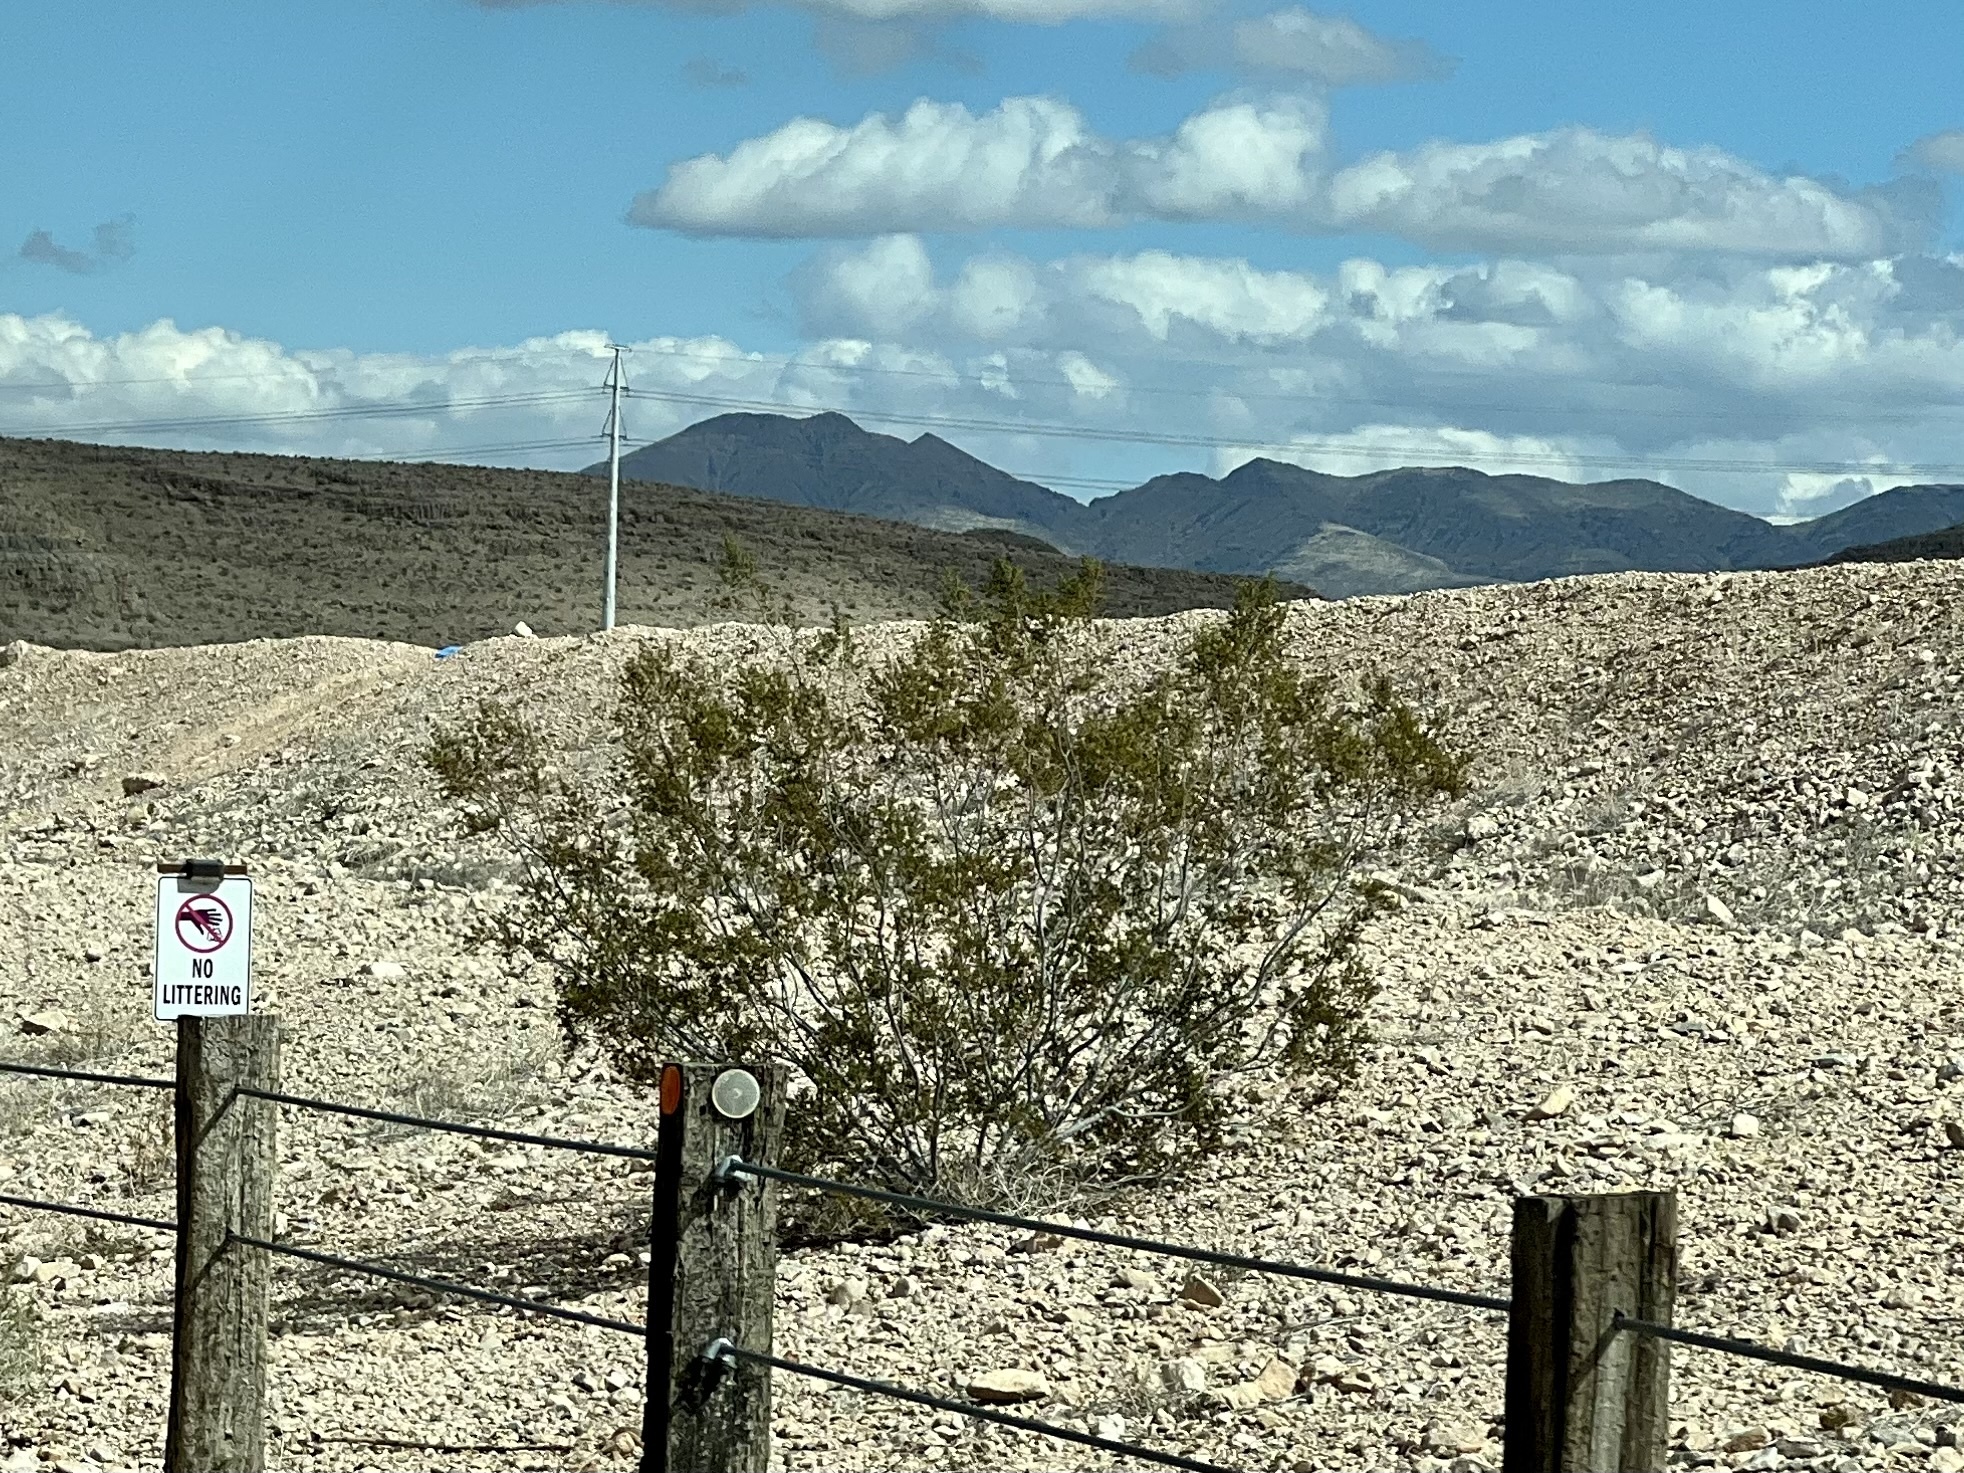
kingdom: Plantae
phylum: Tracheophyta
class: Magnoliopsida
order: Zygophyllales
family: Zygophyllaceae
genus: Larrea
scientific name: Larrea tridentata
